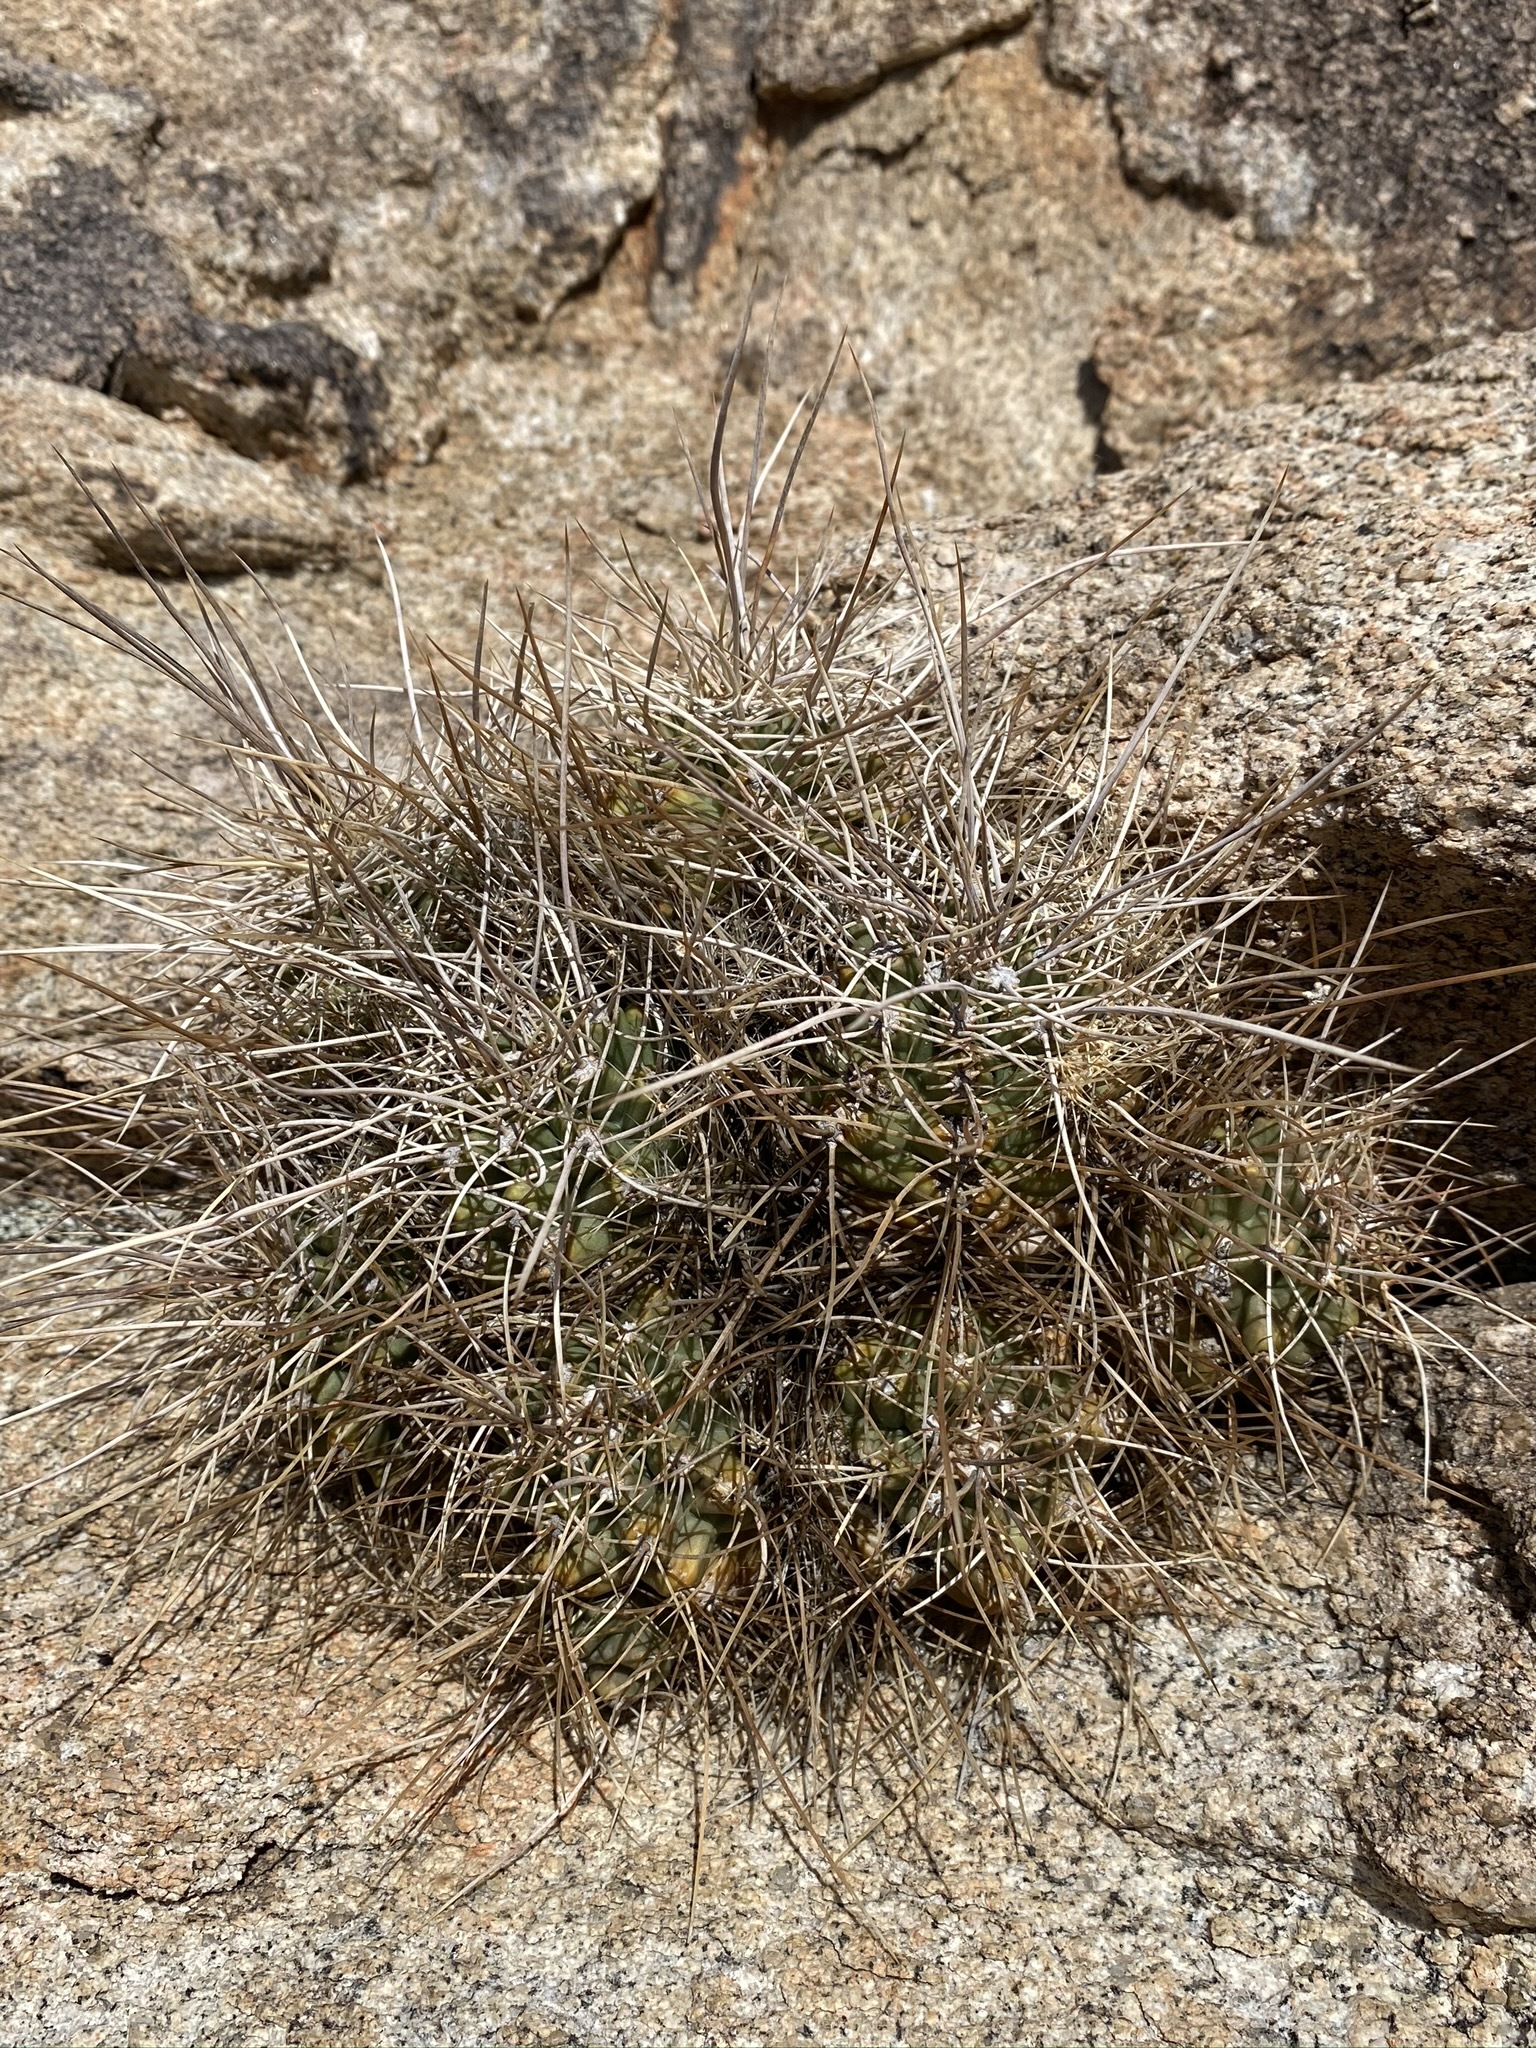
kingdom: Plantae
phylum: Tracheophyta
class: Magnoliopsida
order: Caryophyllales
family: Cactaceae
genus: Echinocereus
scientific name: Echinocereus triglochidiatus
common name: Claretcup hedgehog
